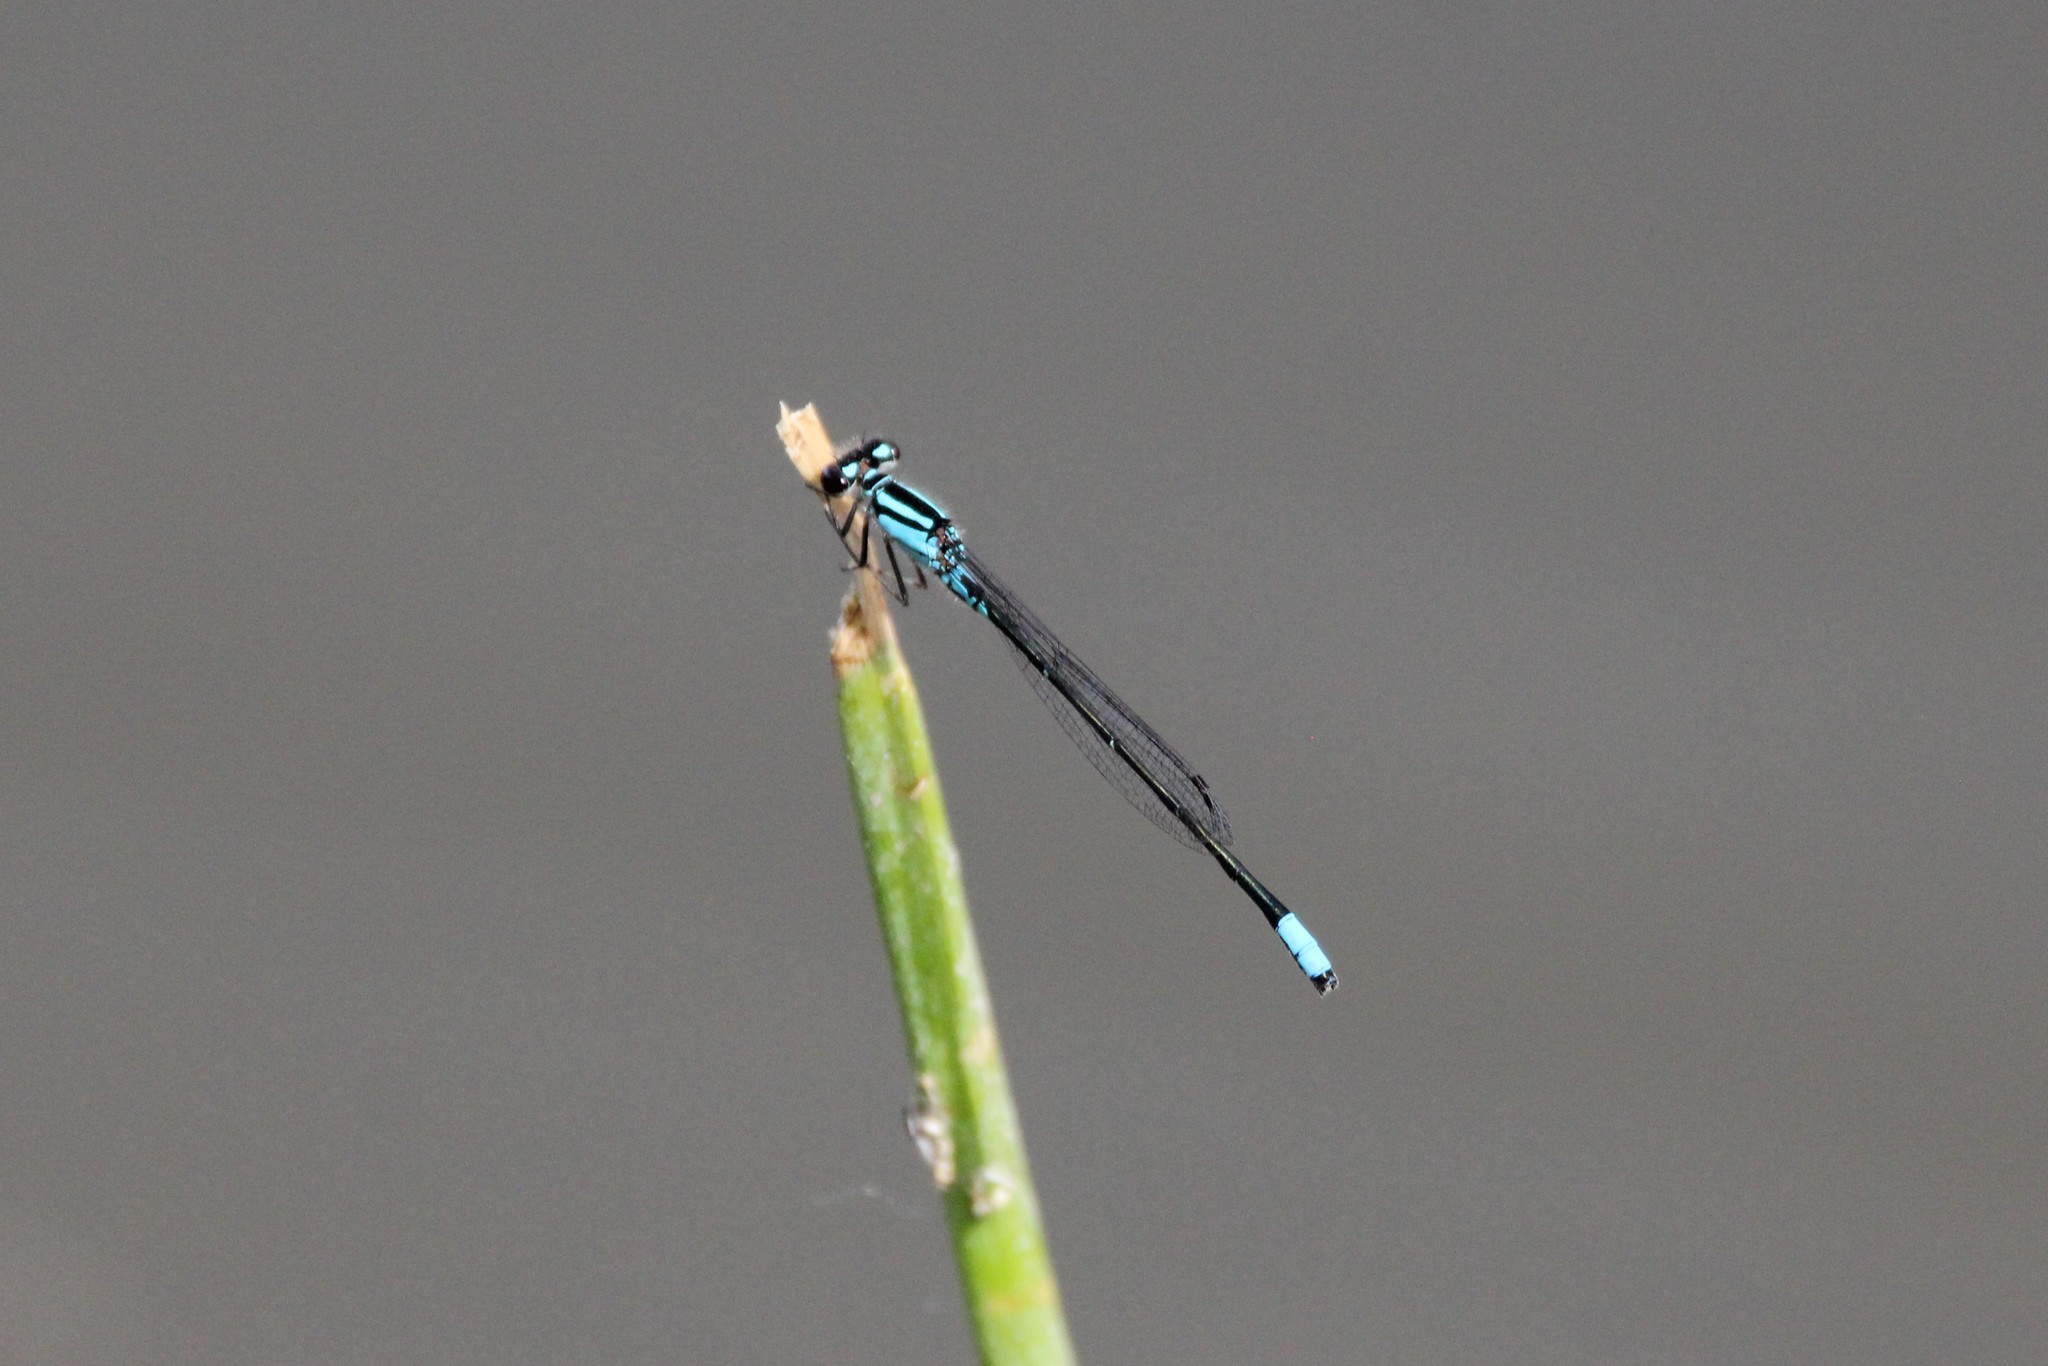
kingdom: Animalia
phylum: Arthropoda
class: Insecta
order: Odonata
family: Coenagrionidae
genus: Enallagma
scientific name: Enallagma geminatum
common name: Skimming bluet
